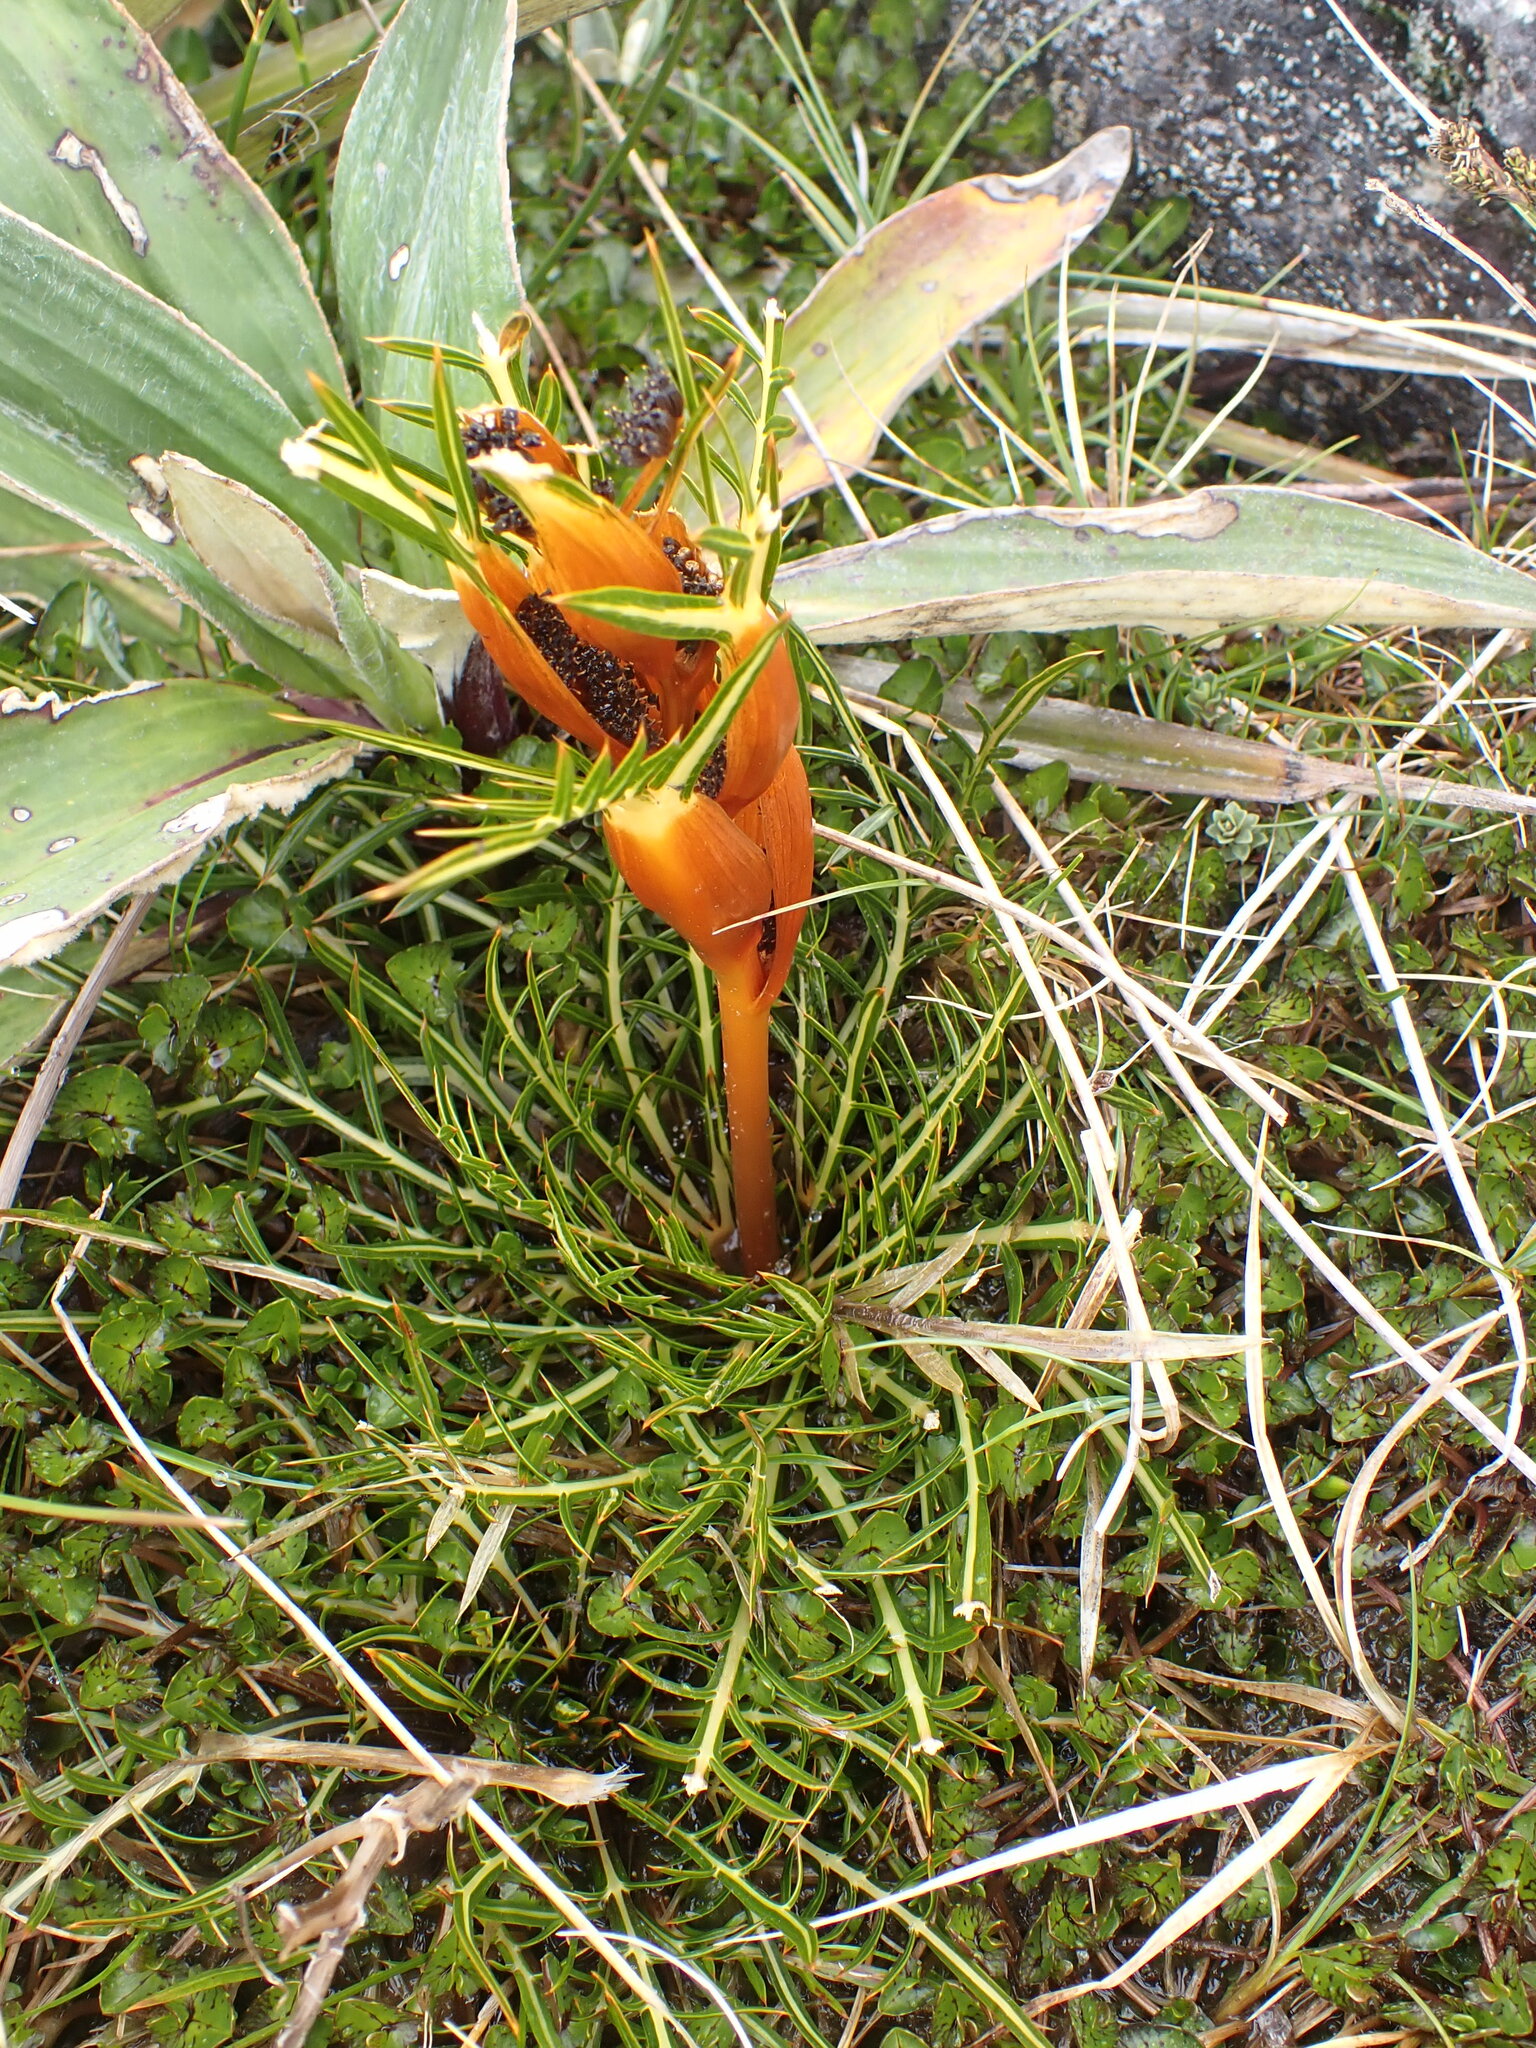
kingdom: Plantae
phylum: Tracheophyta
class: Magnoliopsida
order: Apiales
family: Apiaceae
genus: Aciphylla
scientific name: Aciphylla pinnatifida
